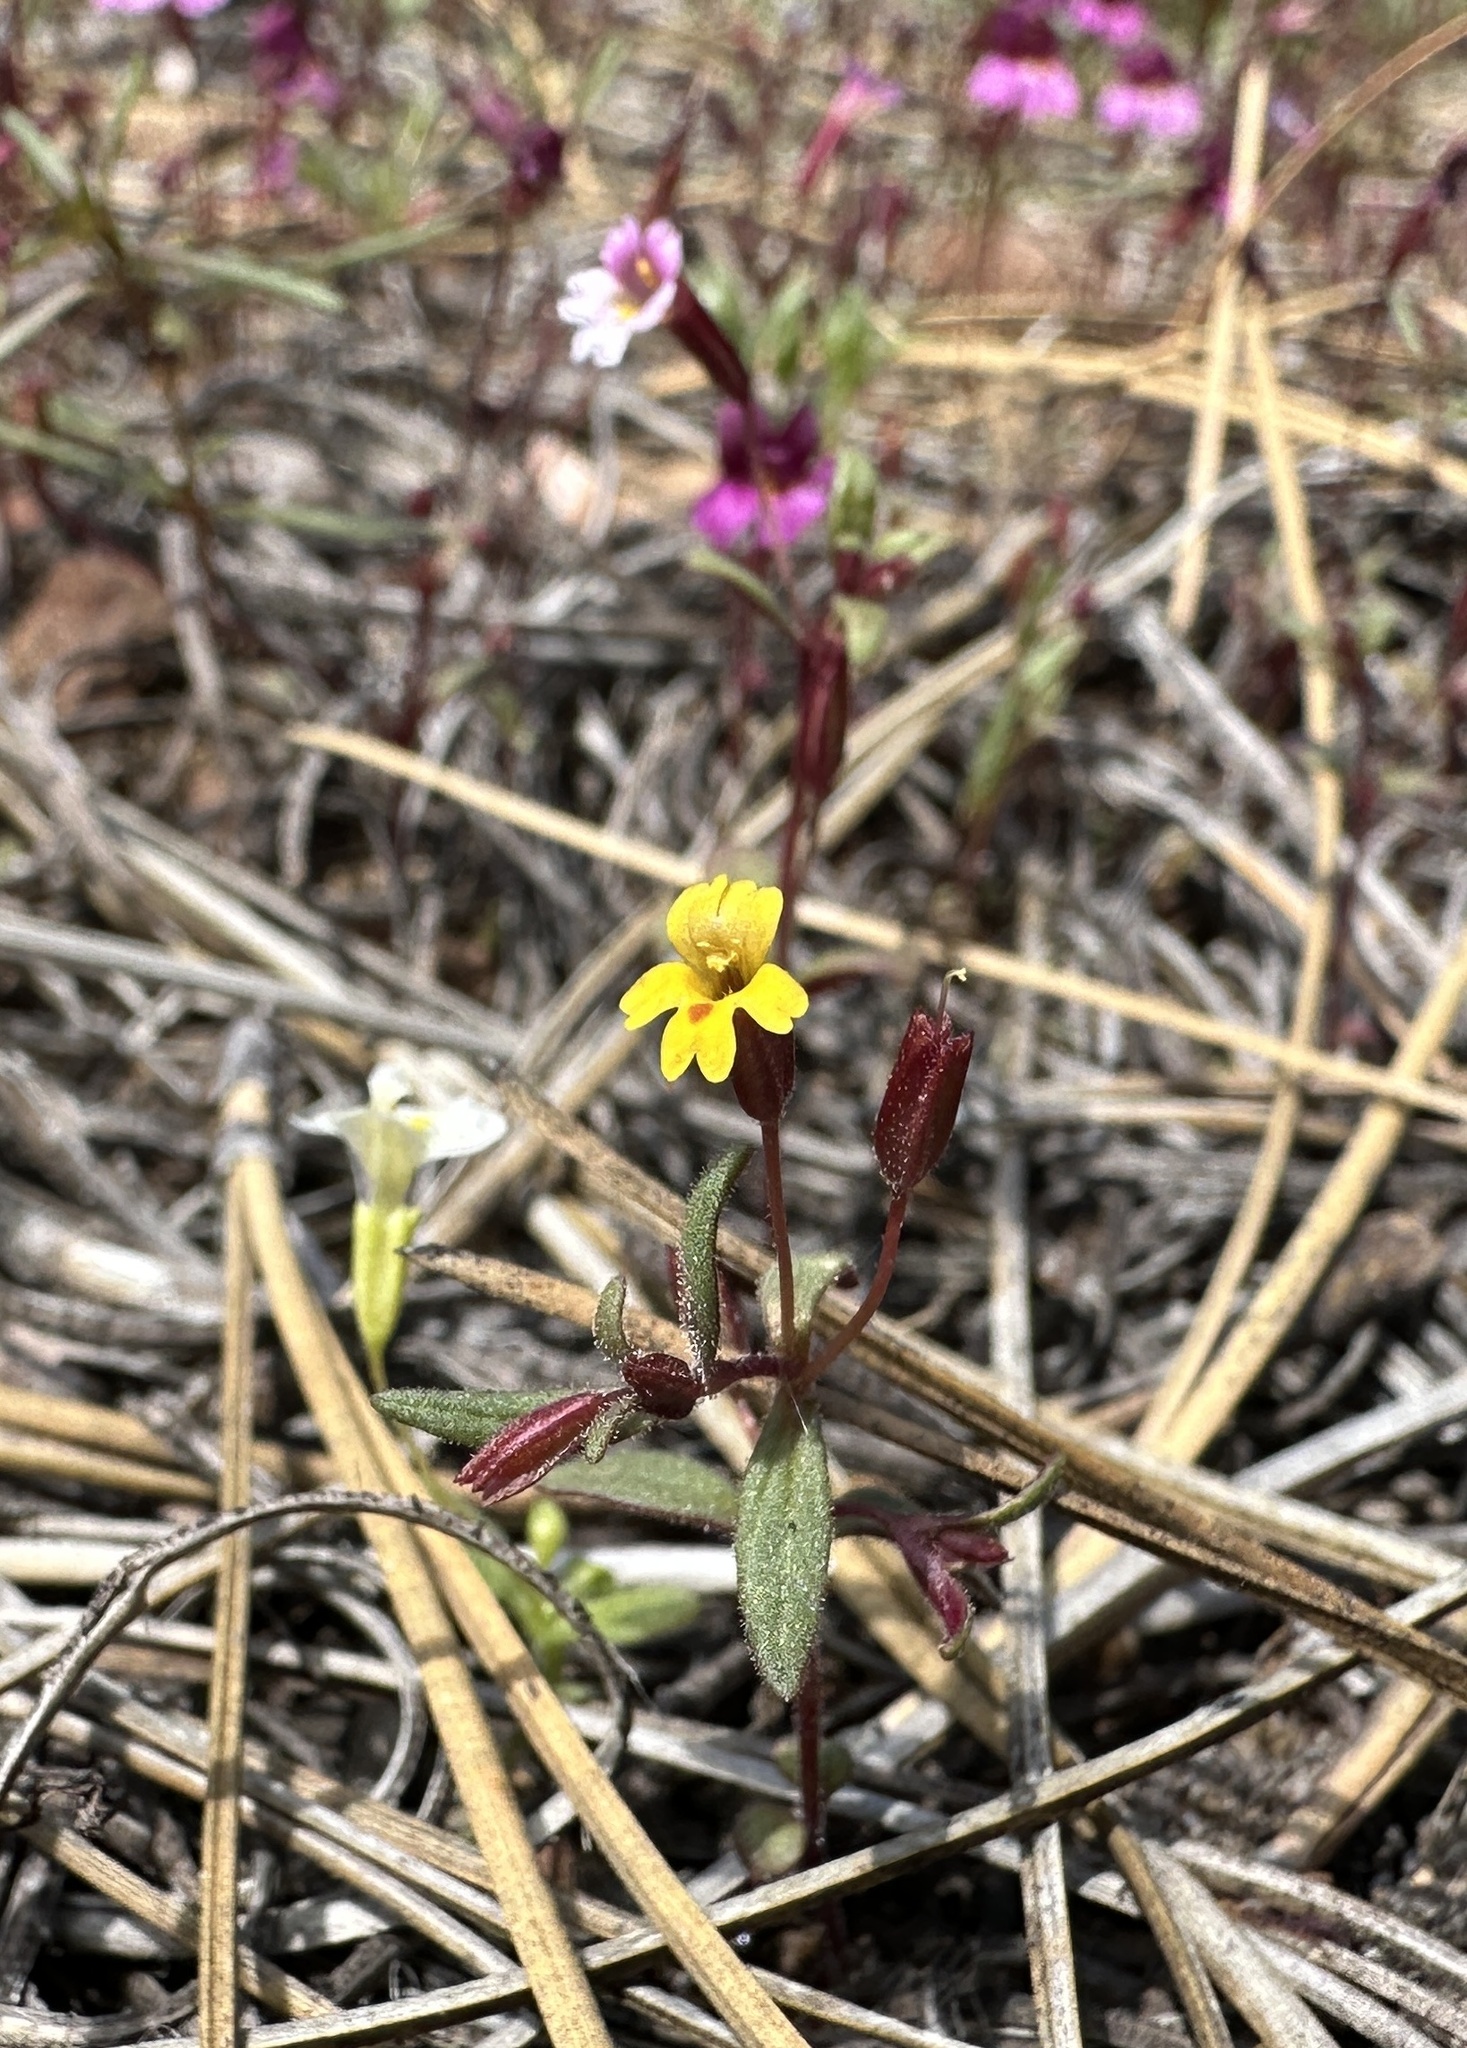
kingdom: Plantae
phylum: Tracheophyta
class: Magnoliopsida
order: Lamiales
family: Phrymaceae
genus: Erythranthe
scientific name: Erythranthe suksdorfii
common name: Suksdorf's monkeyflower
